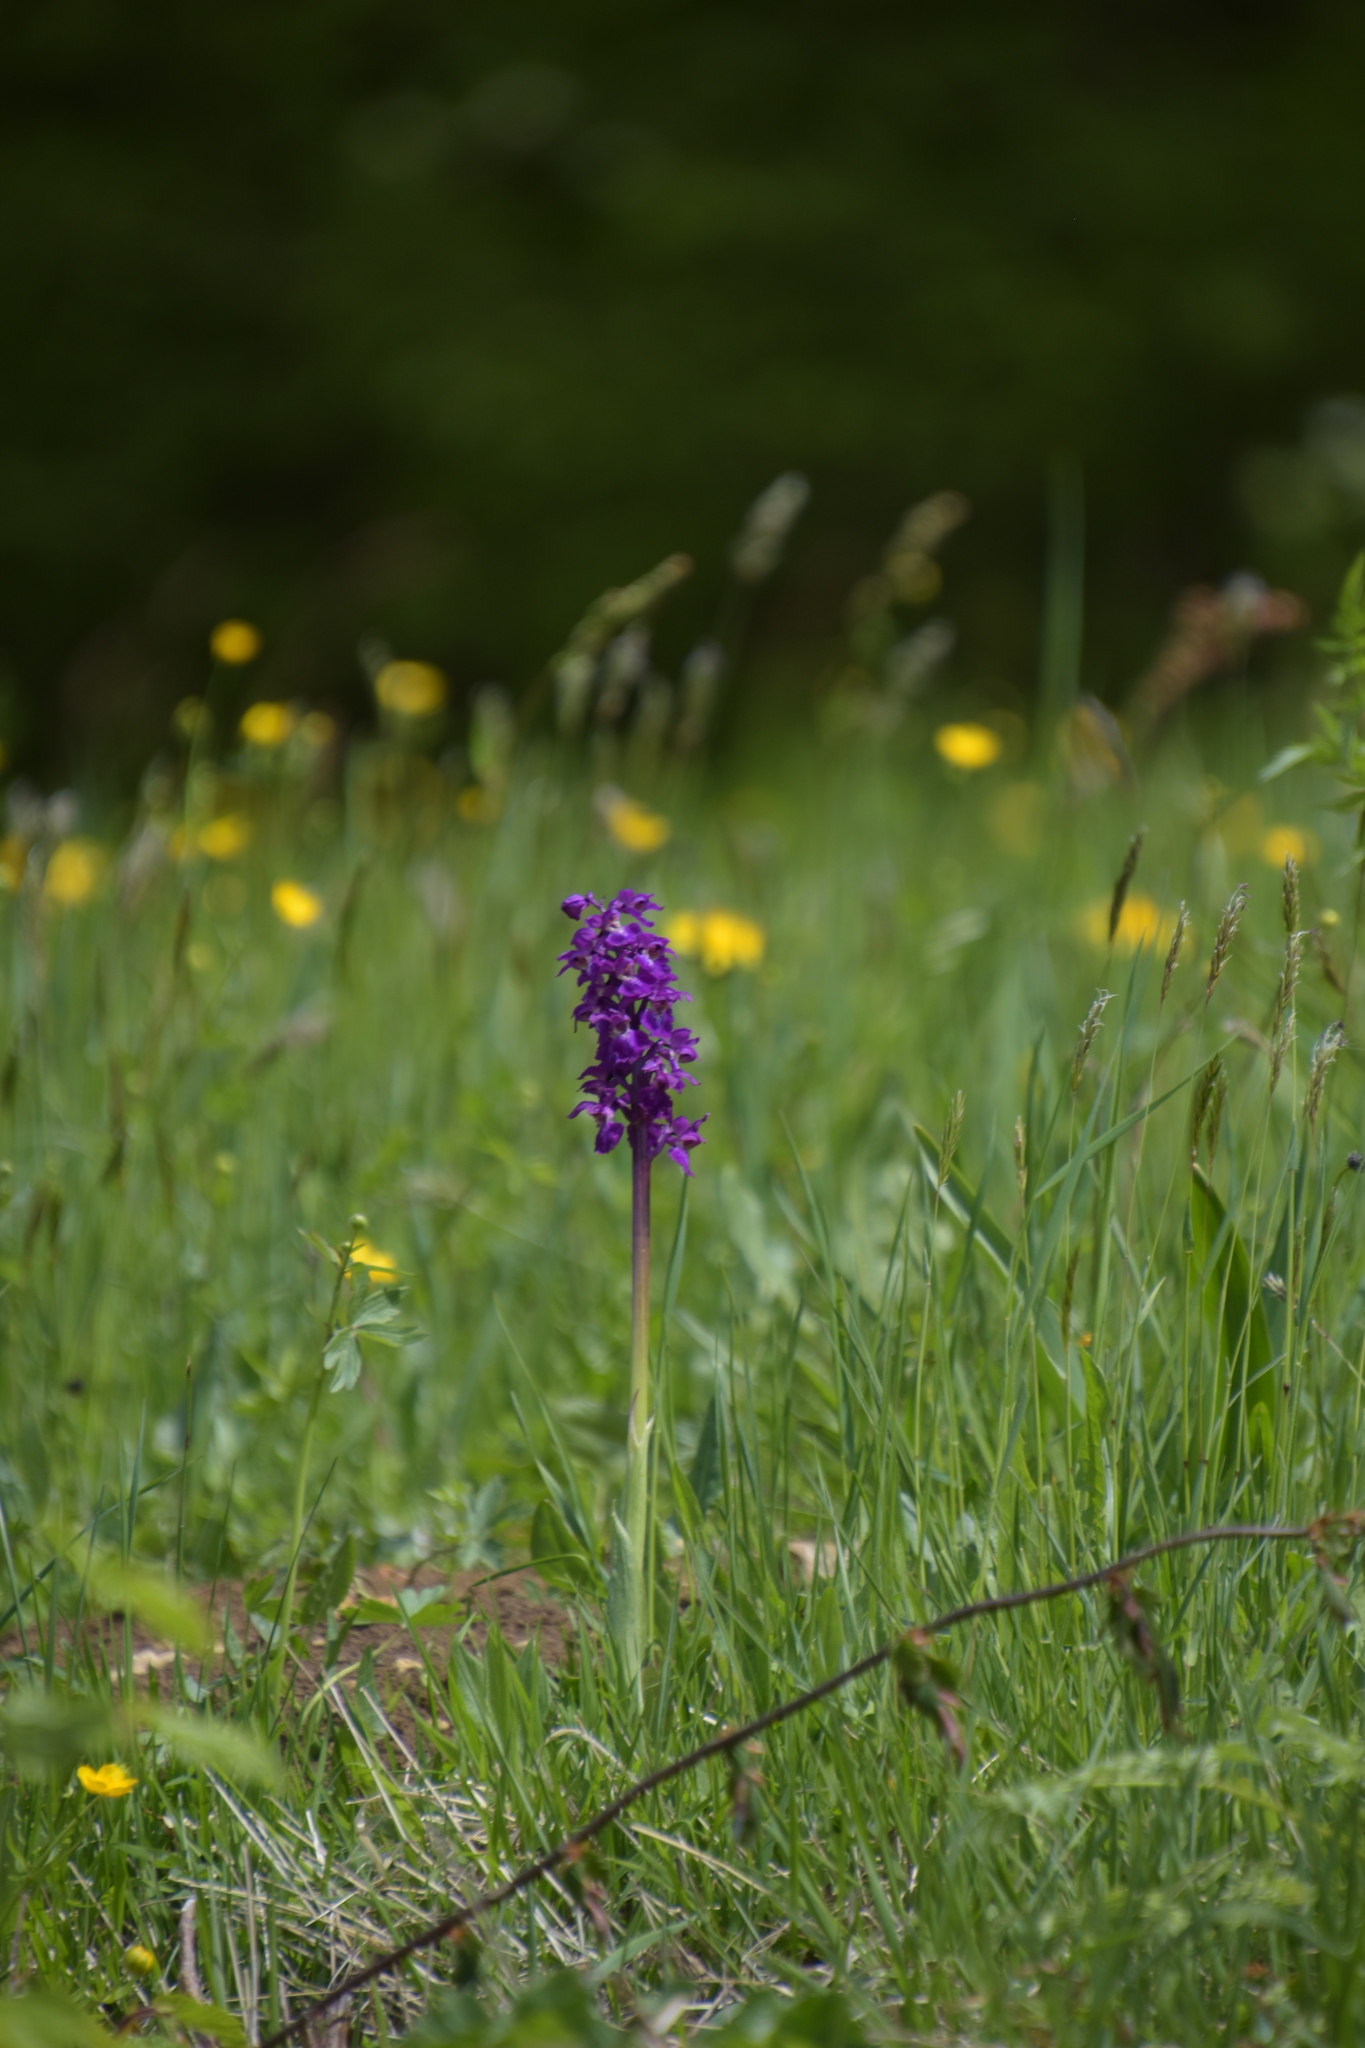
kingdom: Plantae
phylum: Tracheophyta
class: Liliopsida
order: Asparagales
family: Orchidaceae
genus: Orchis
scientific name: Orchis mascula
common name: Early-purple orchid
